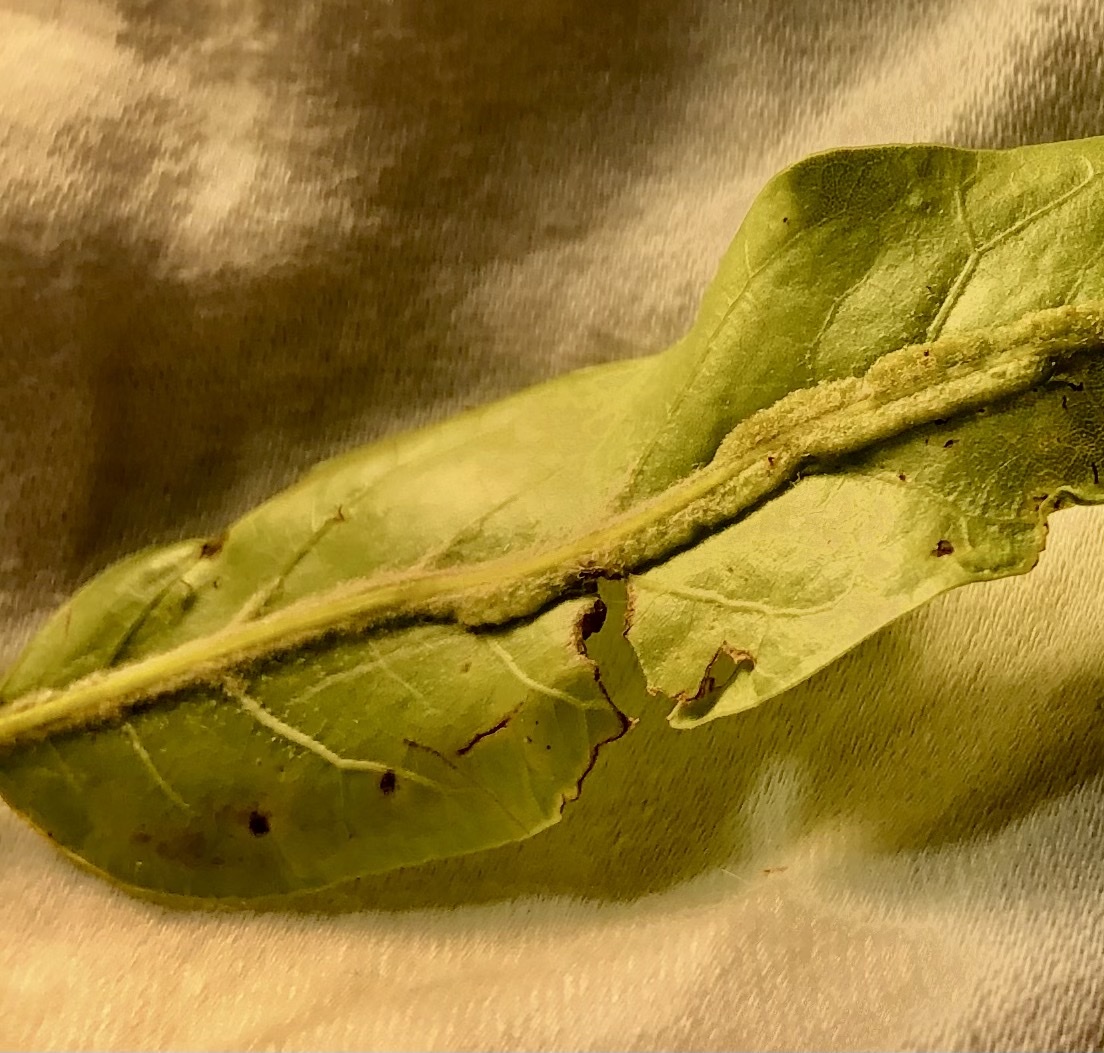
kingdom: Animalia
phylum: Arthropoda
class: Insecta
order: Diptera
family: Cecidomyiidae
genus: Macrodiplosis
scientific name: Macrodiplosis q-orucum
